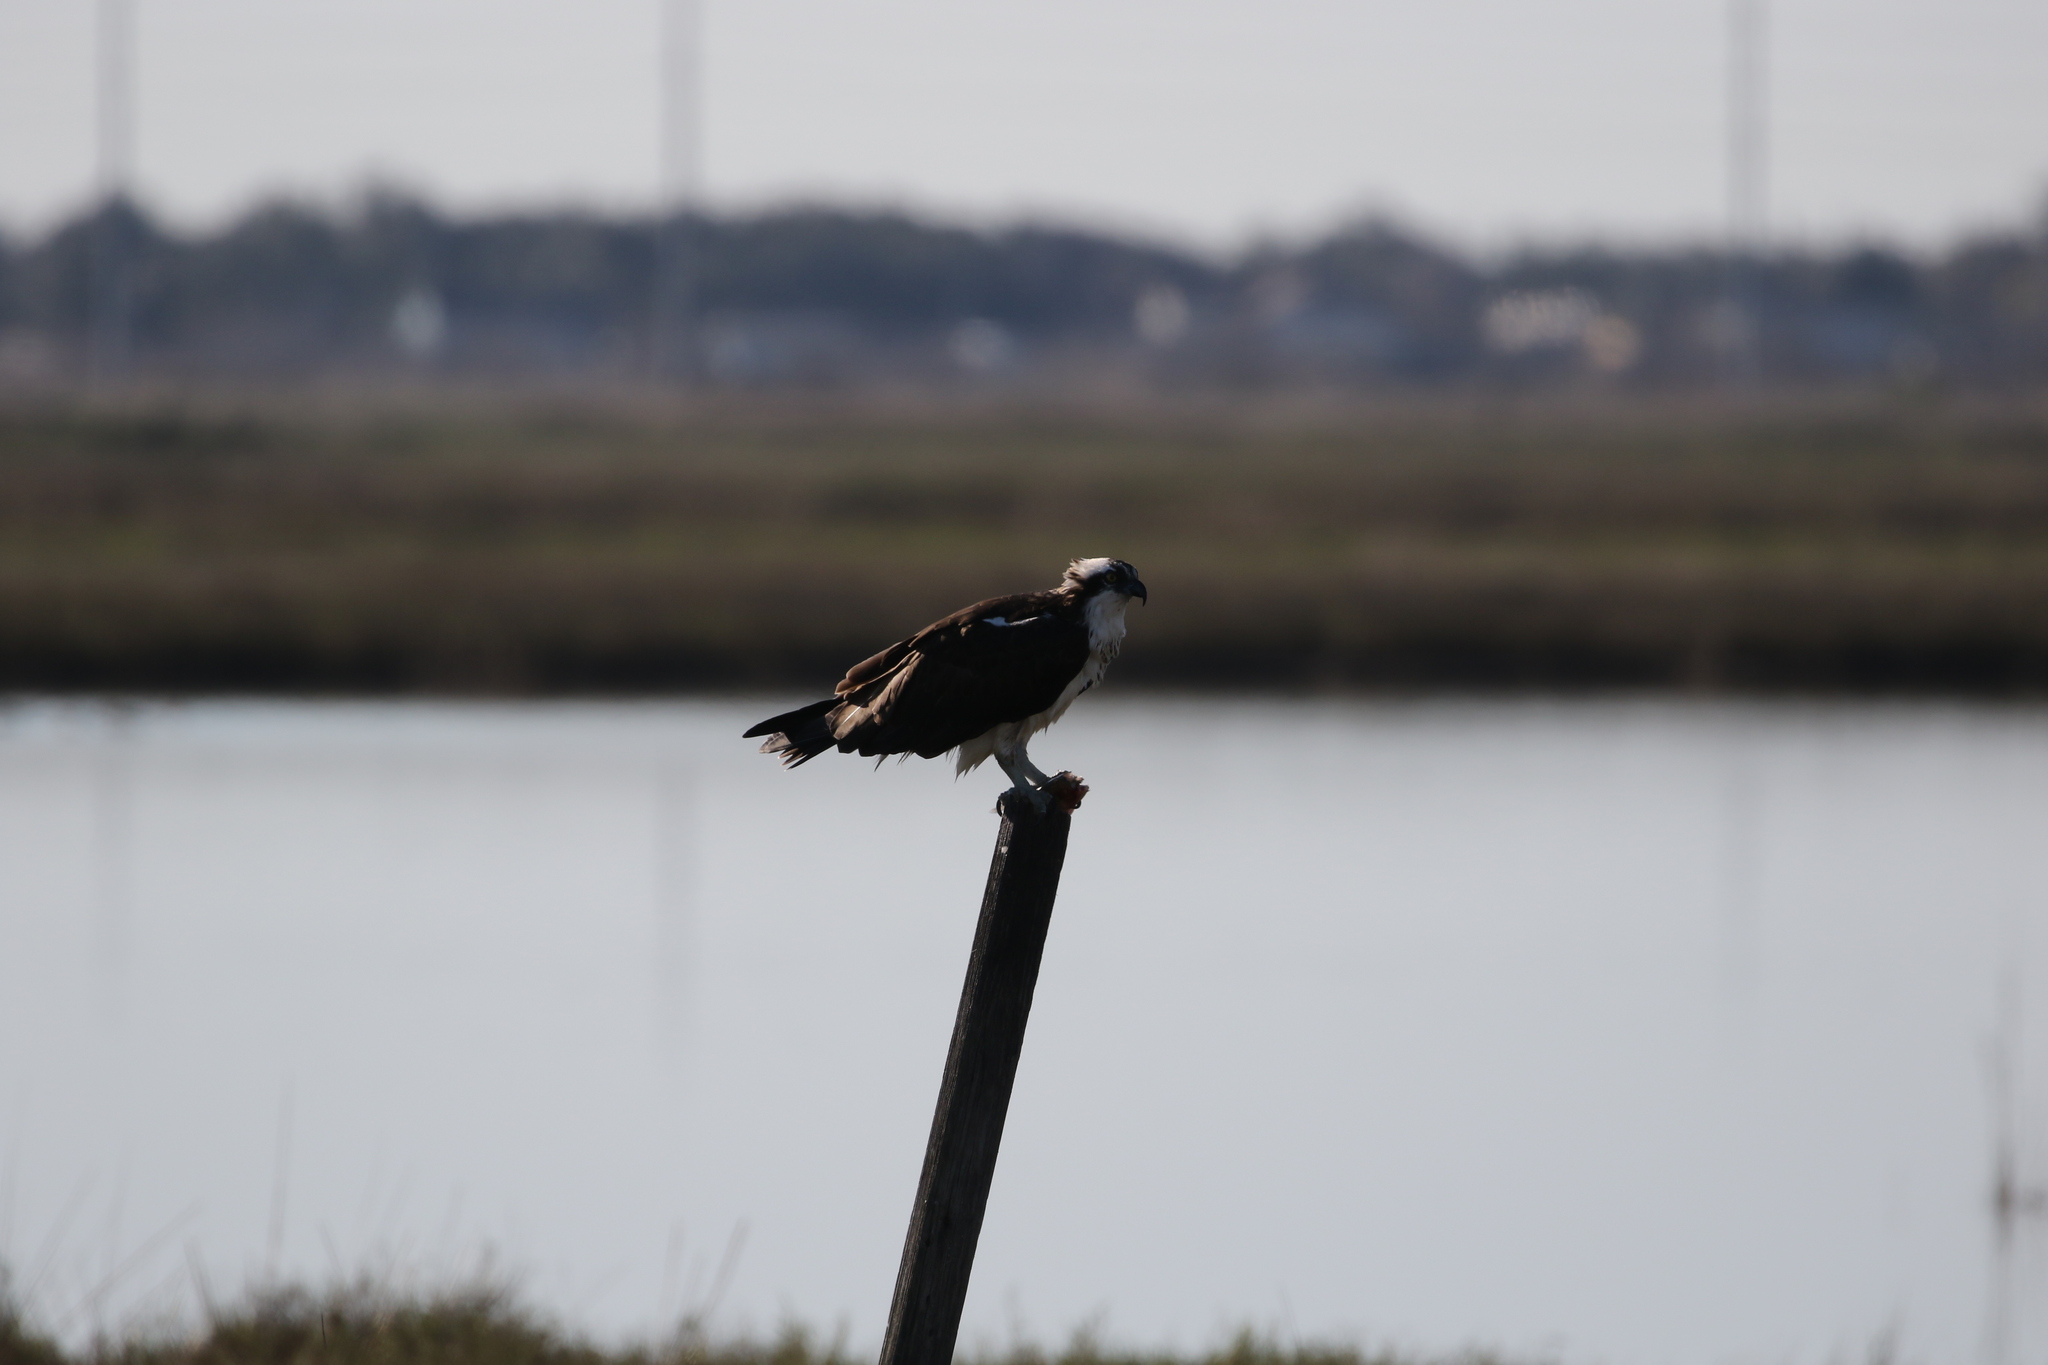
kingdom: Animalia
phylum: Chordata
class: Aves
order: Accipitriformes
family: Pandionidae
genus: Pandion
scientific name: Pandion haliaetus
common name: Osprey
